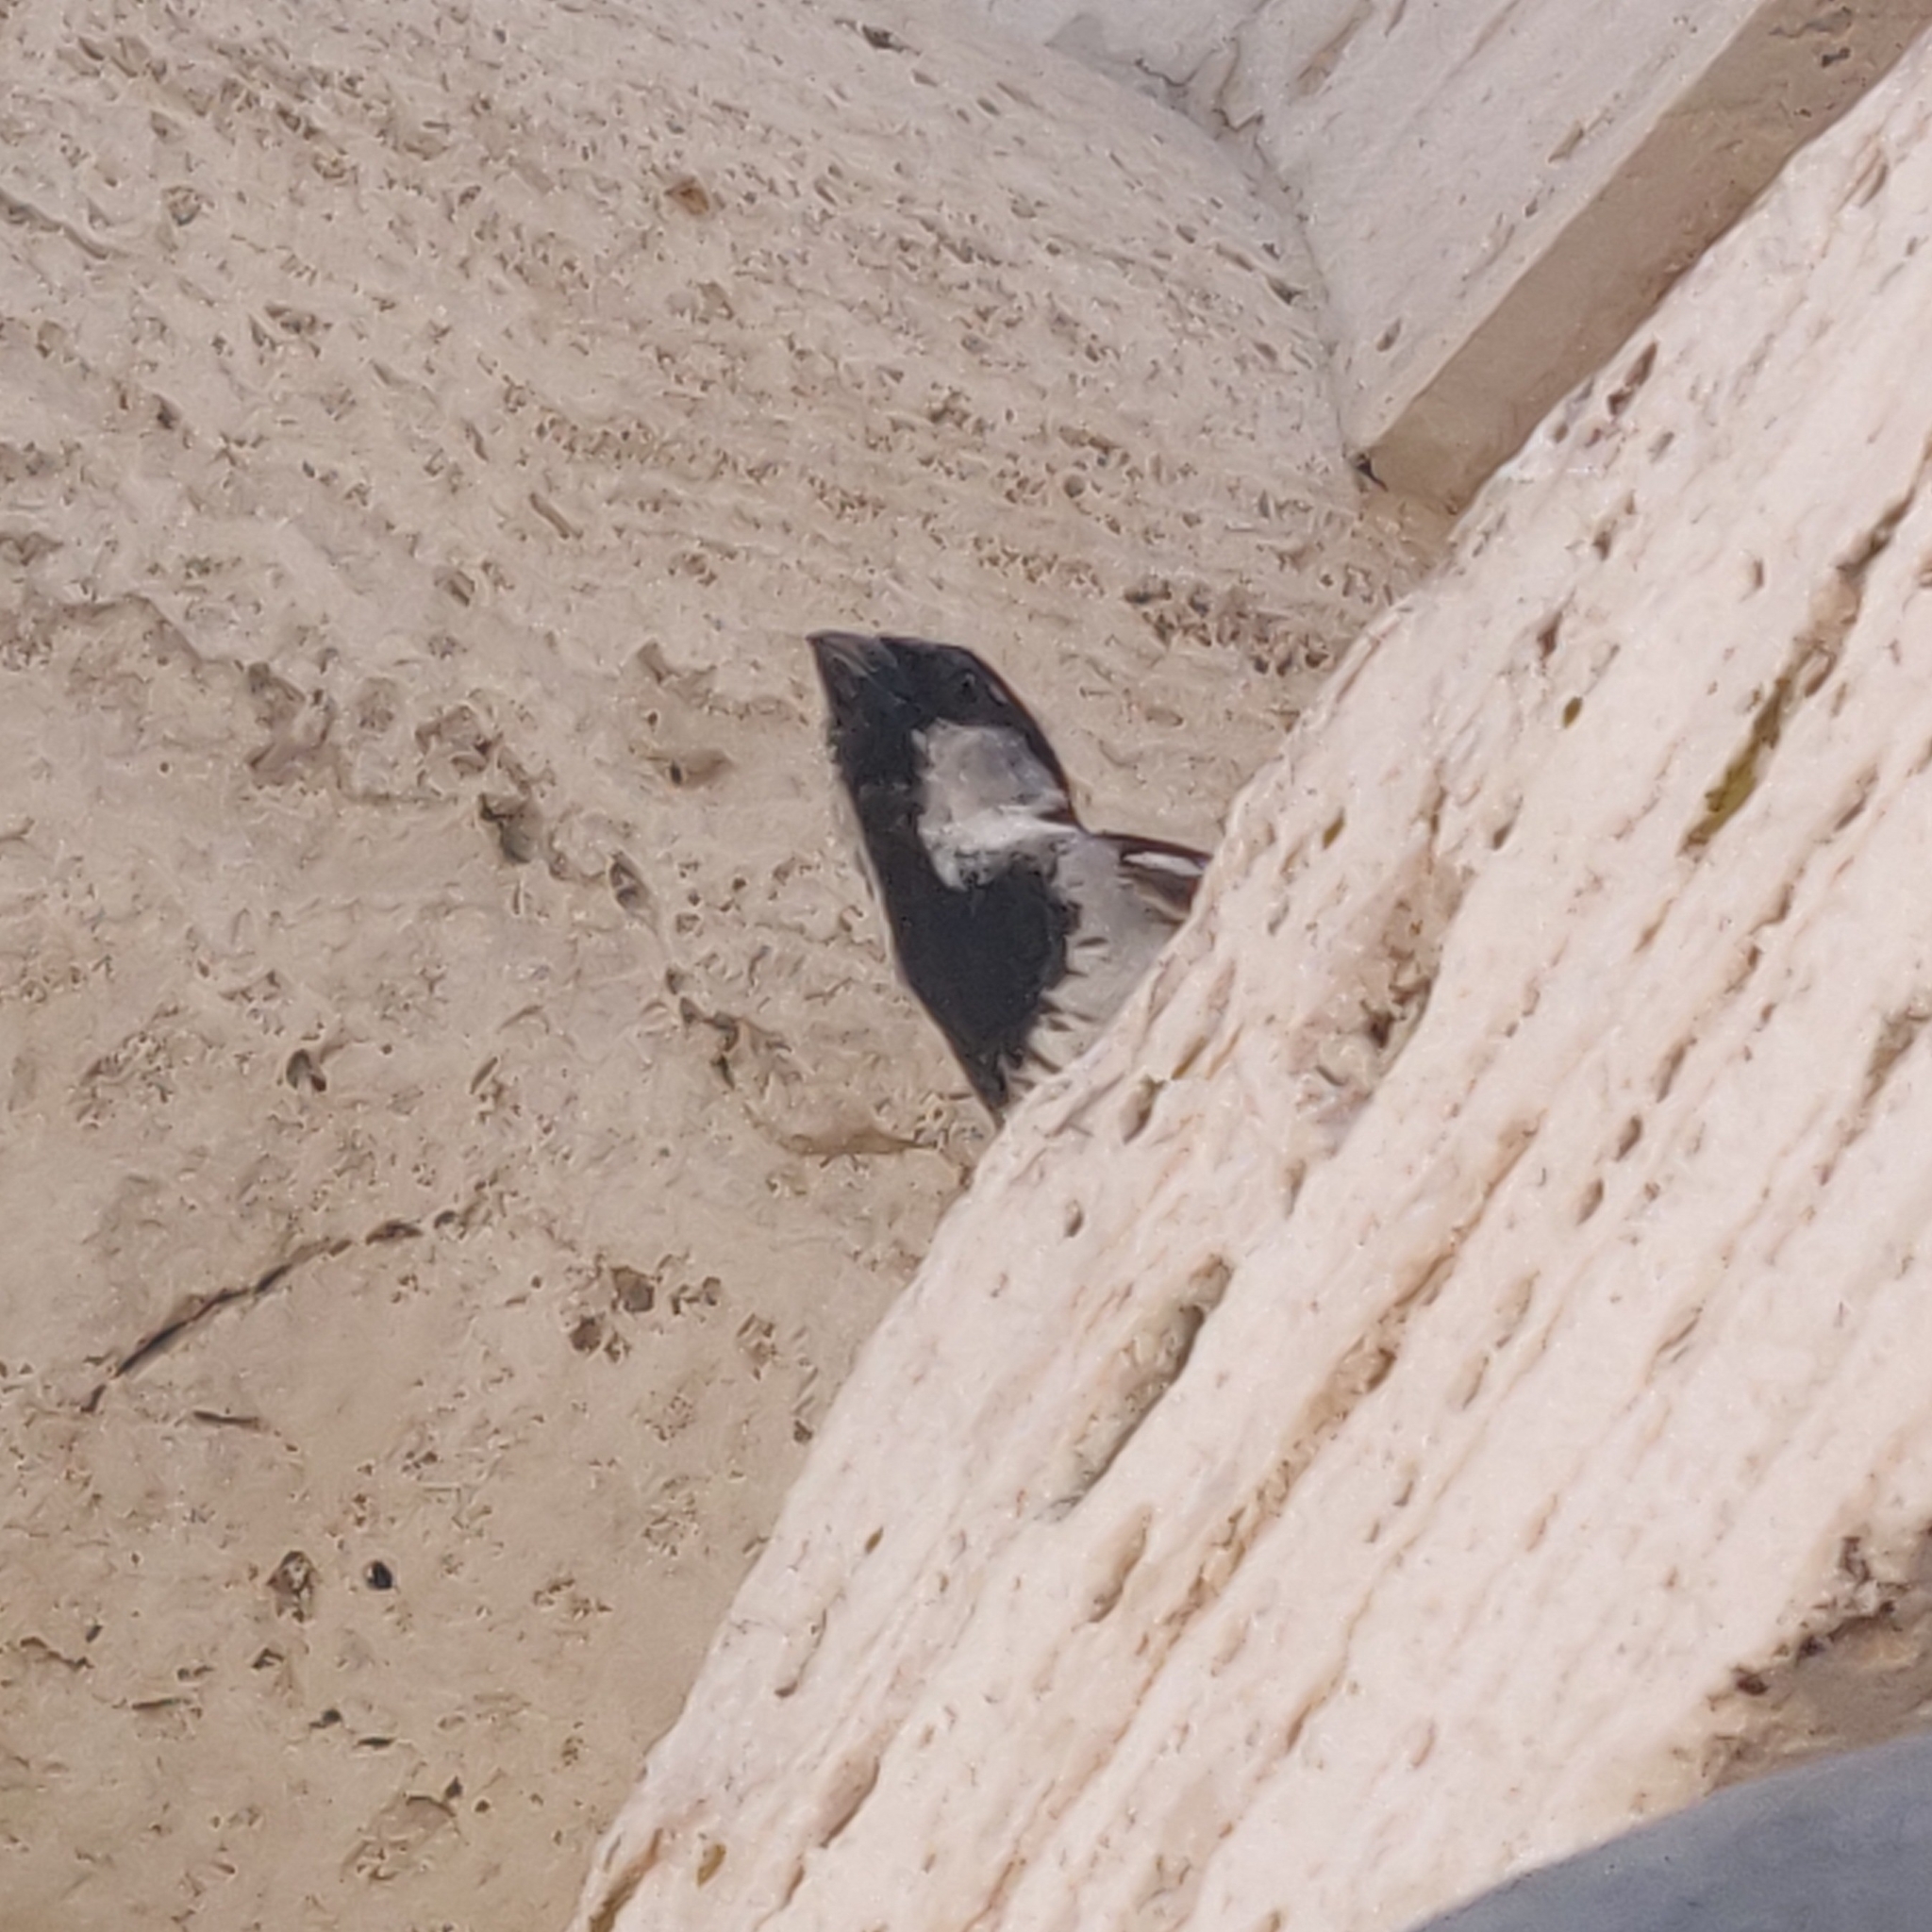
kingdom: Animalia
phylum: Chordata
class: Aves
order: Passeriformes
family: Passeridae
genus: Passer
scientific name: Passer domesticus
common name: House sparrow
